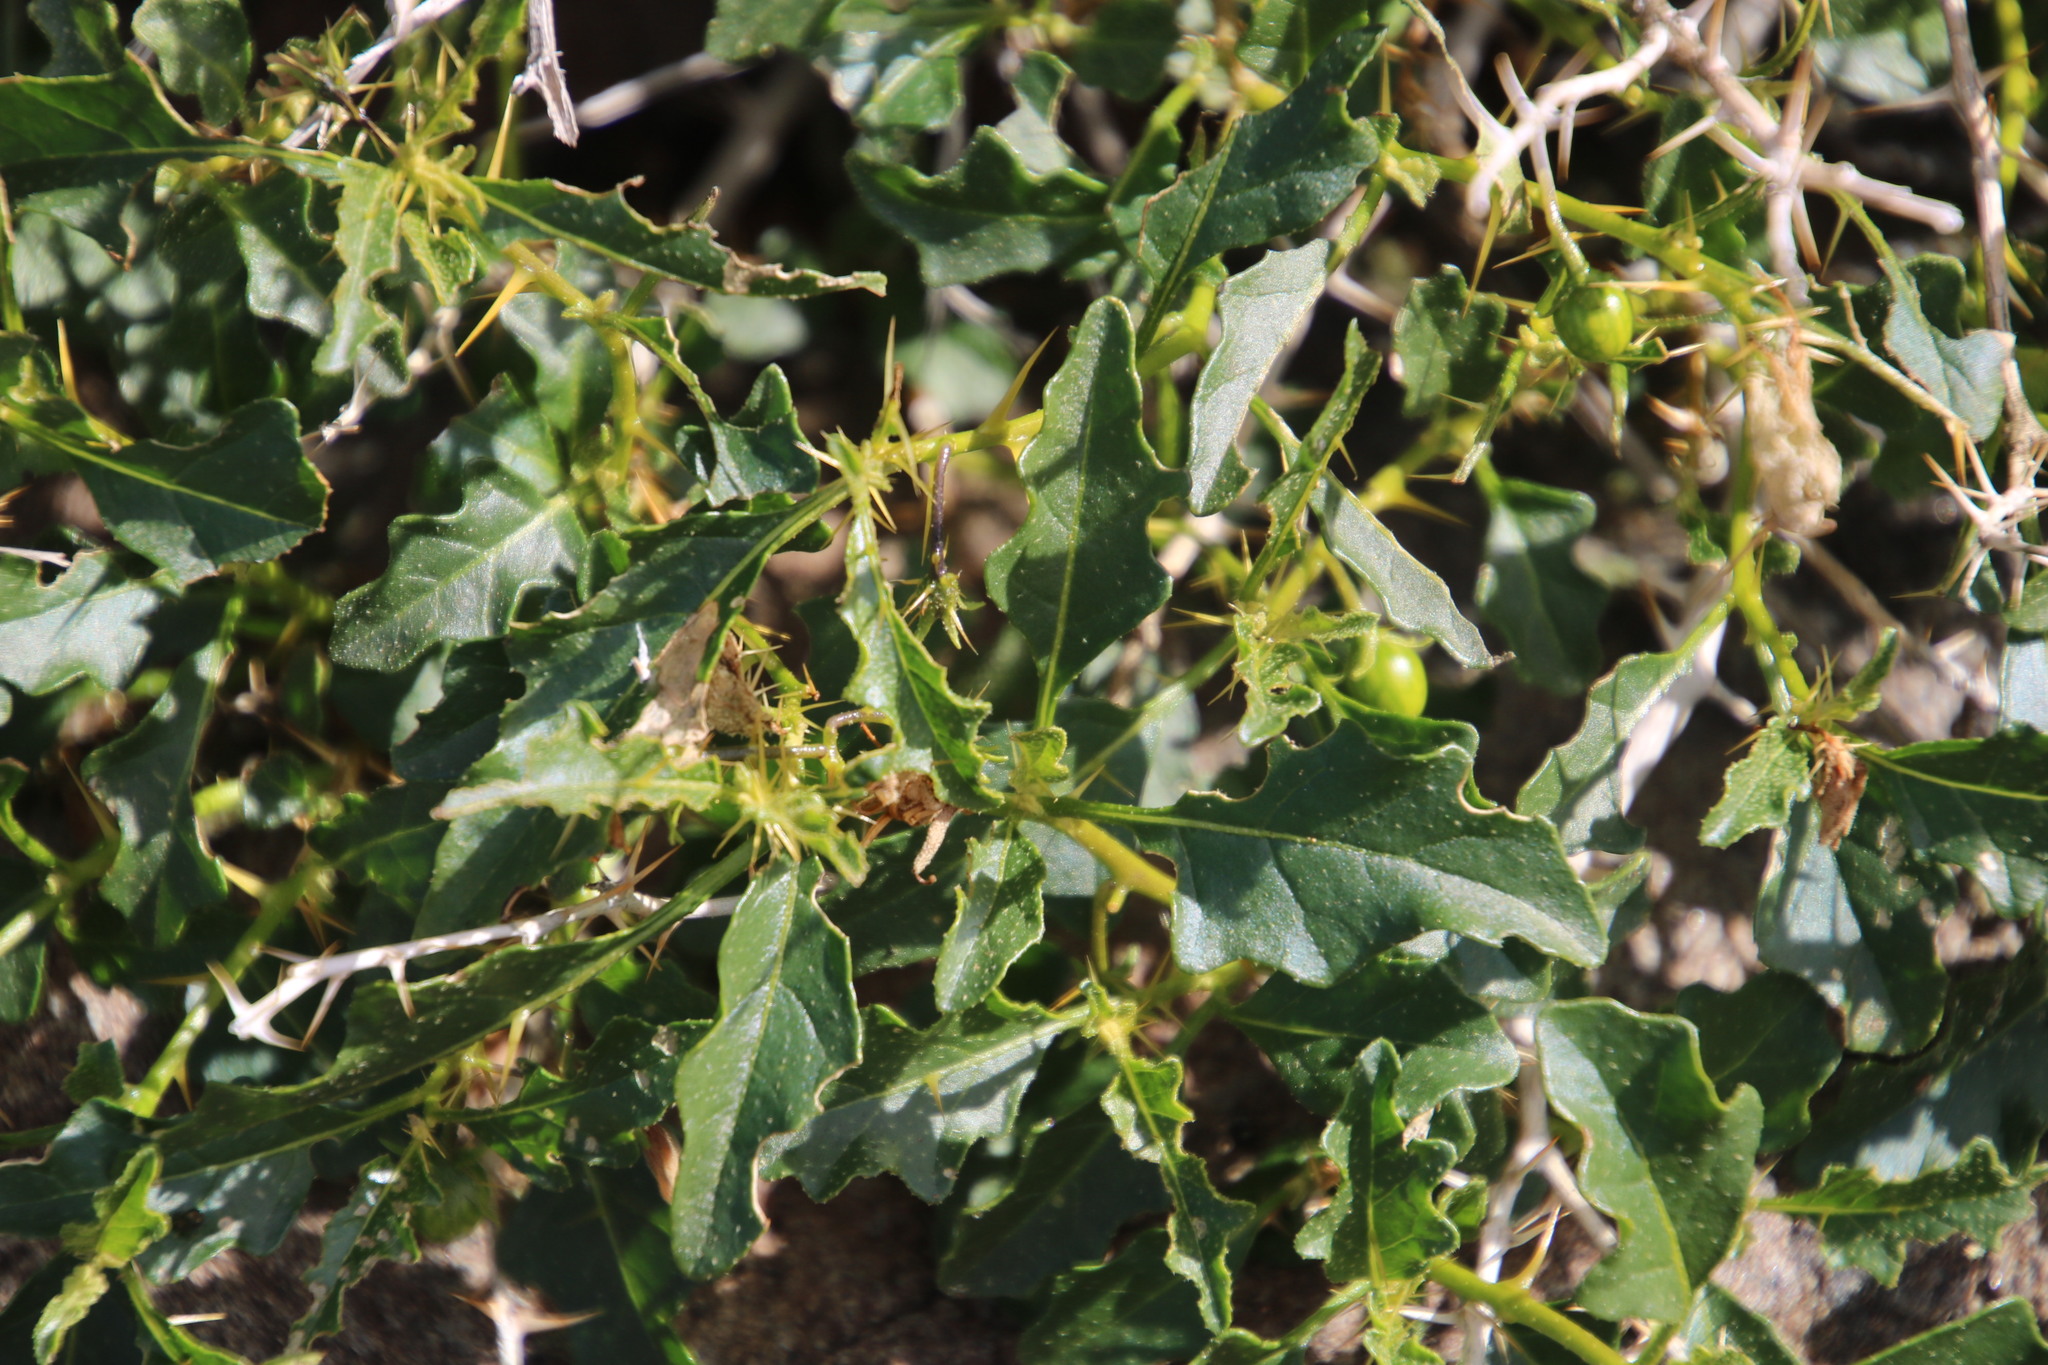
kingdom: Plantae
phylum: Tracheophyta
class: Magnoliopsida
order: Solanales
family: Solanaceae
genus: Solanum
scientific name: Solanum humile
